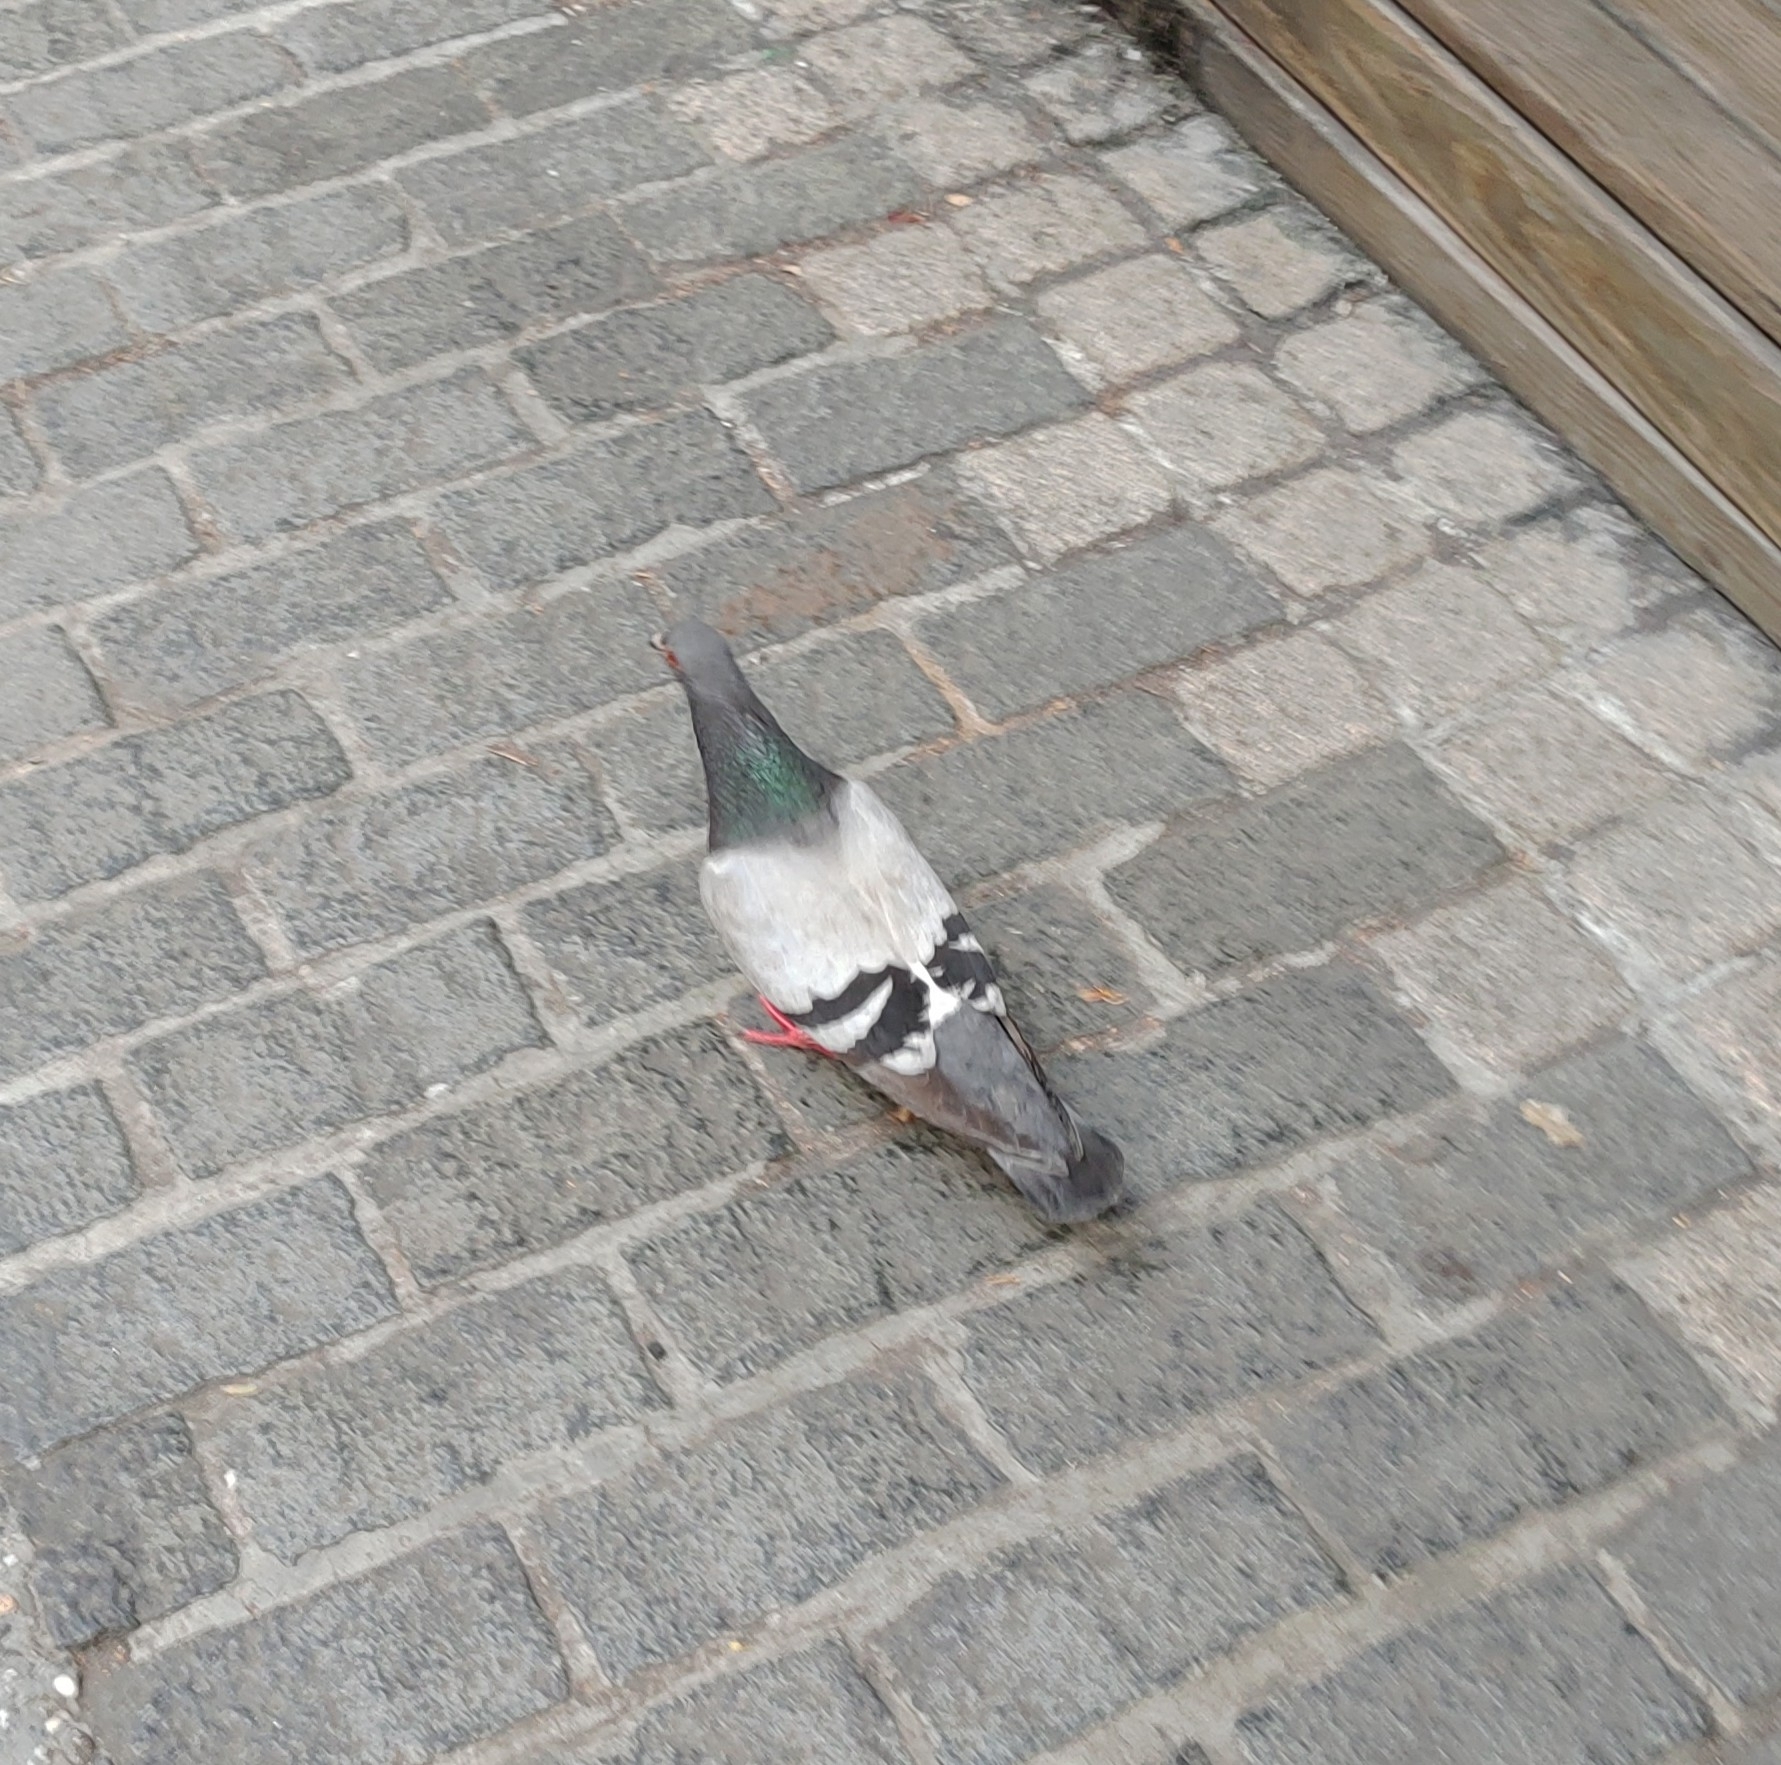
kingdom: Animalia
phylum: Chordata
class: Aves
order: Columbiformes
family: Columbidae
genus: Columba
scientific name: Columba livia
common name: Rock pigeon
